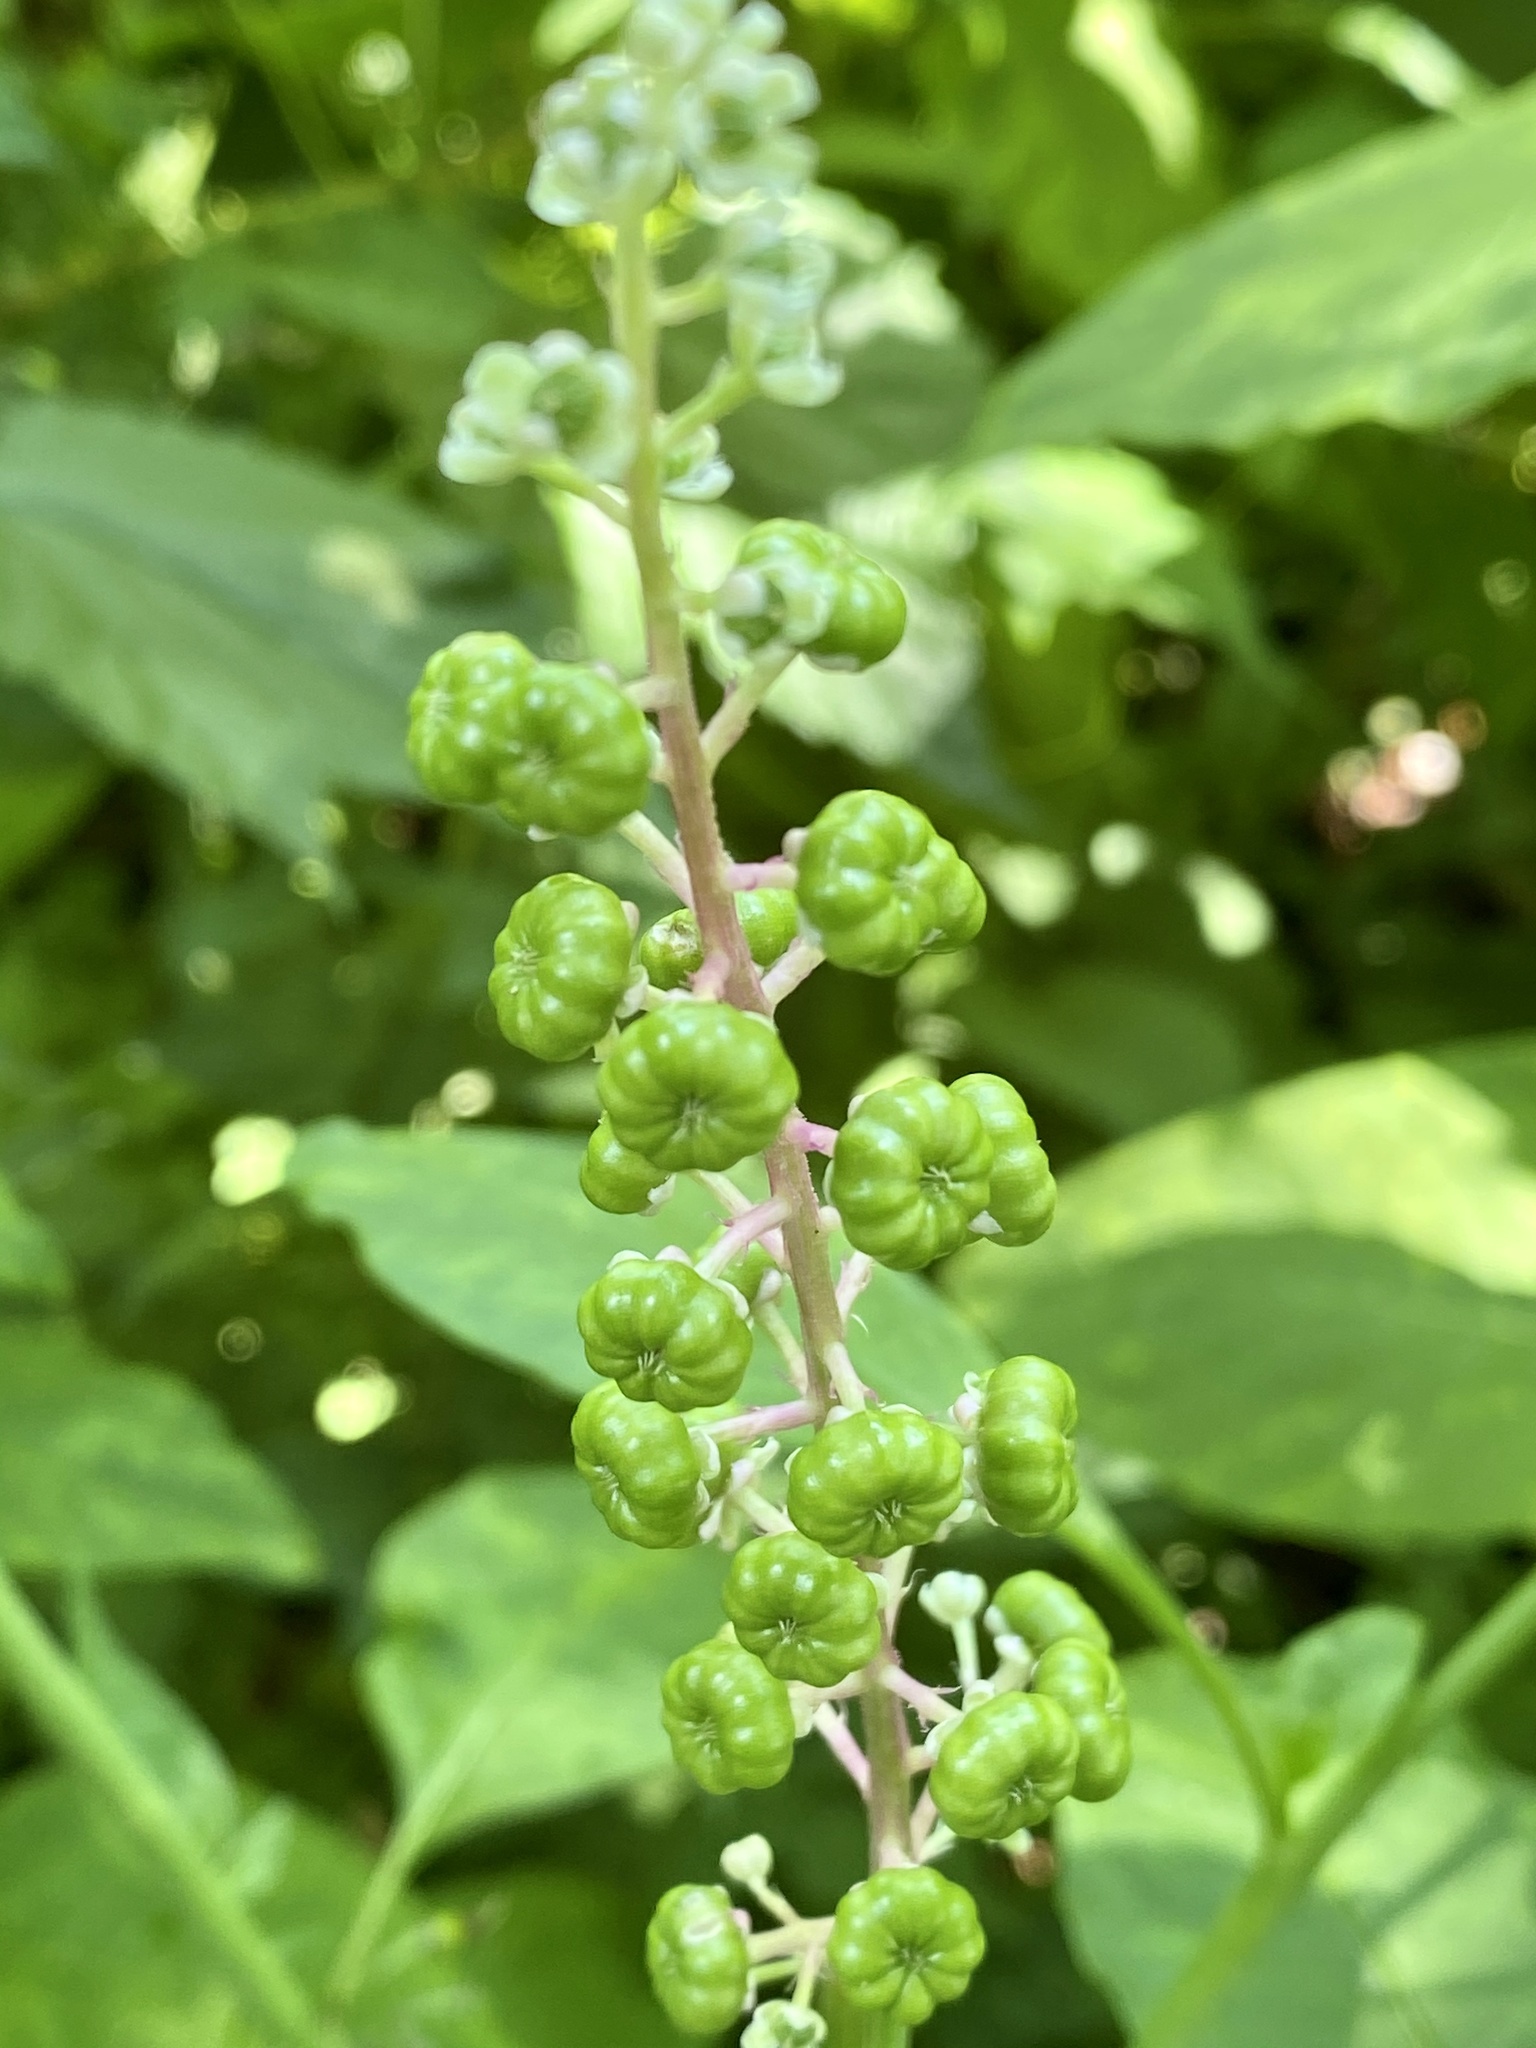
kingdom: Plantae
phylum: Tracheophyta
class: Magnoliopsida
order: Caryophyllales
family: Phytolaccaceae
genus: Phytolacca
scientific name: Phytolacca americana
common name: American pokeweed
